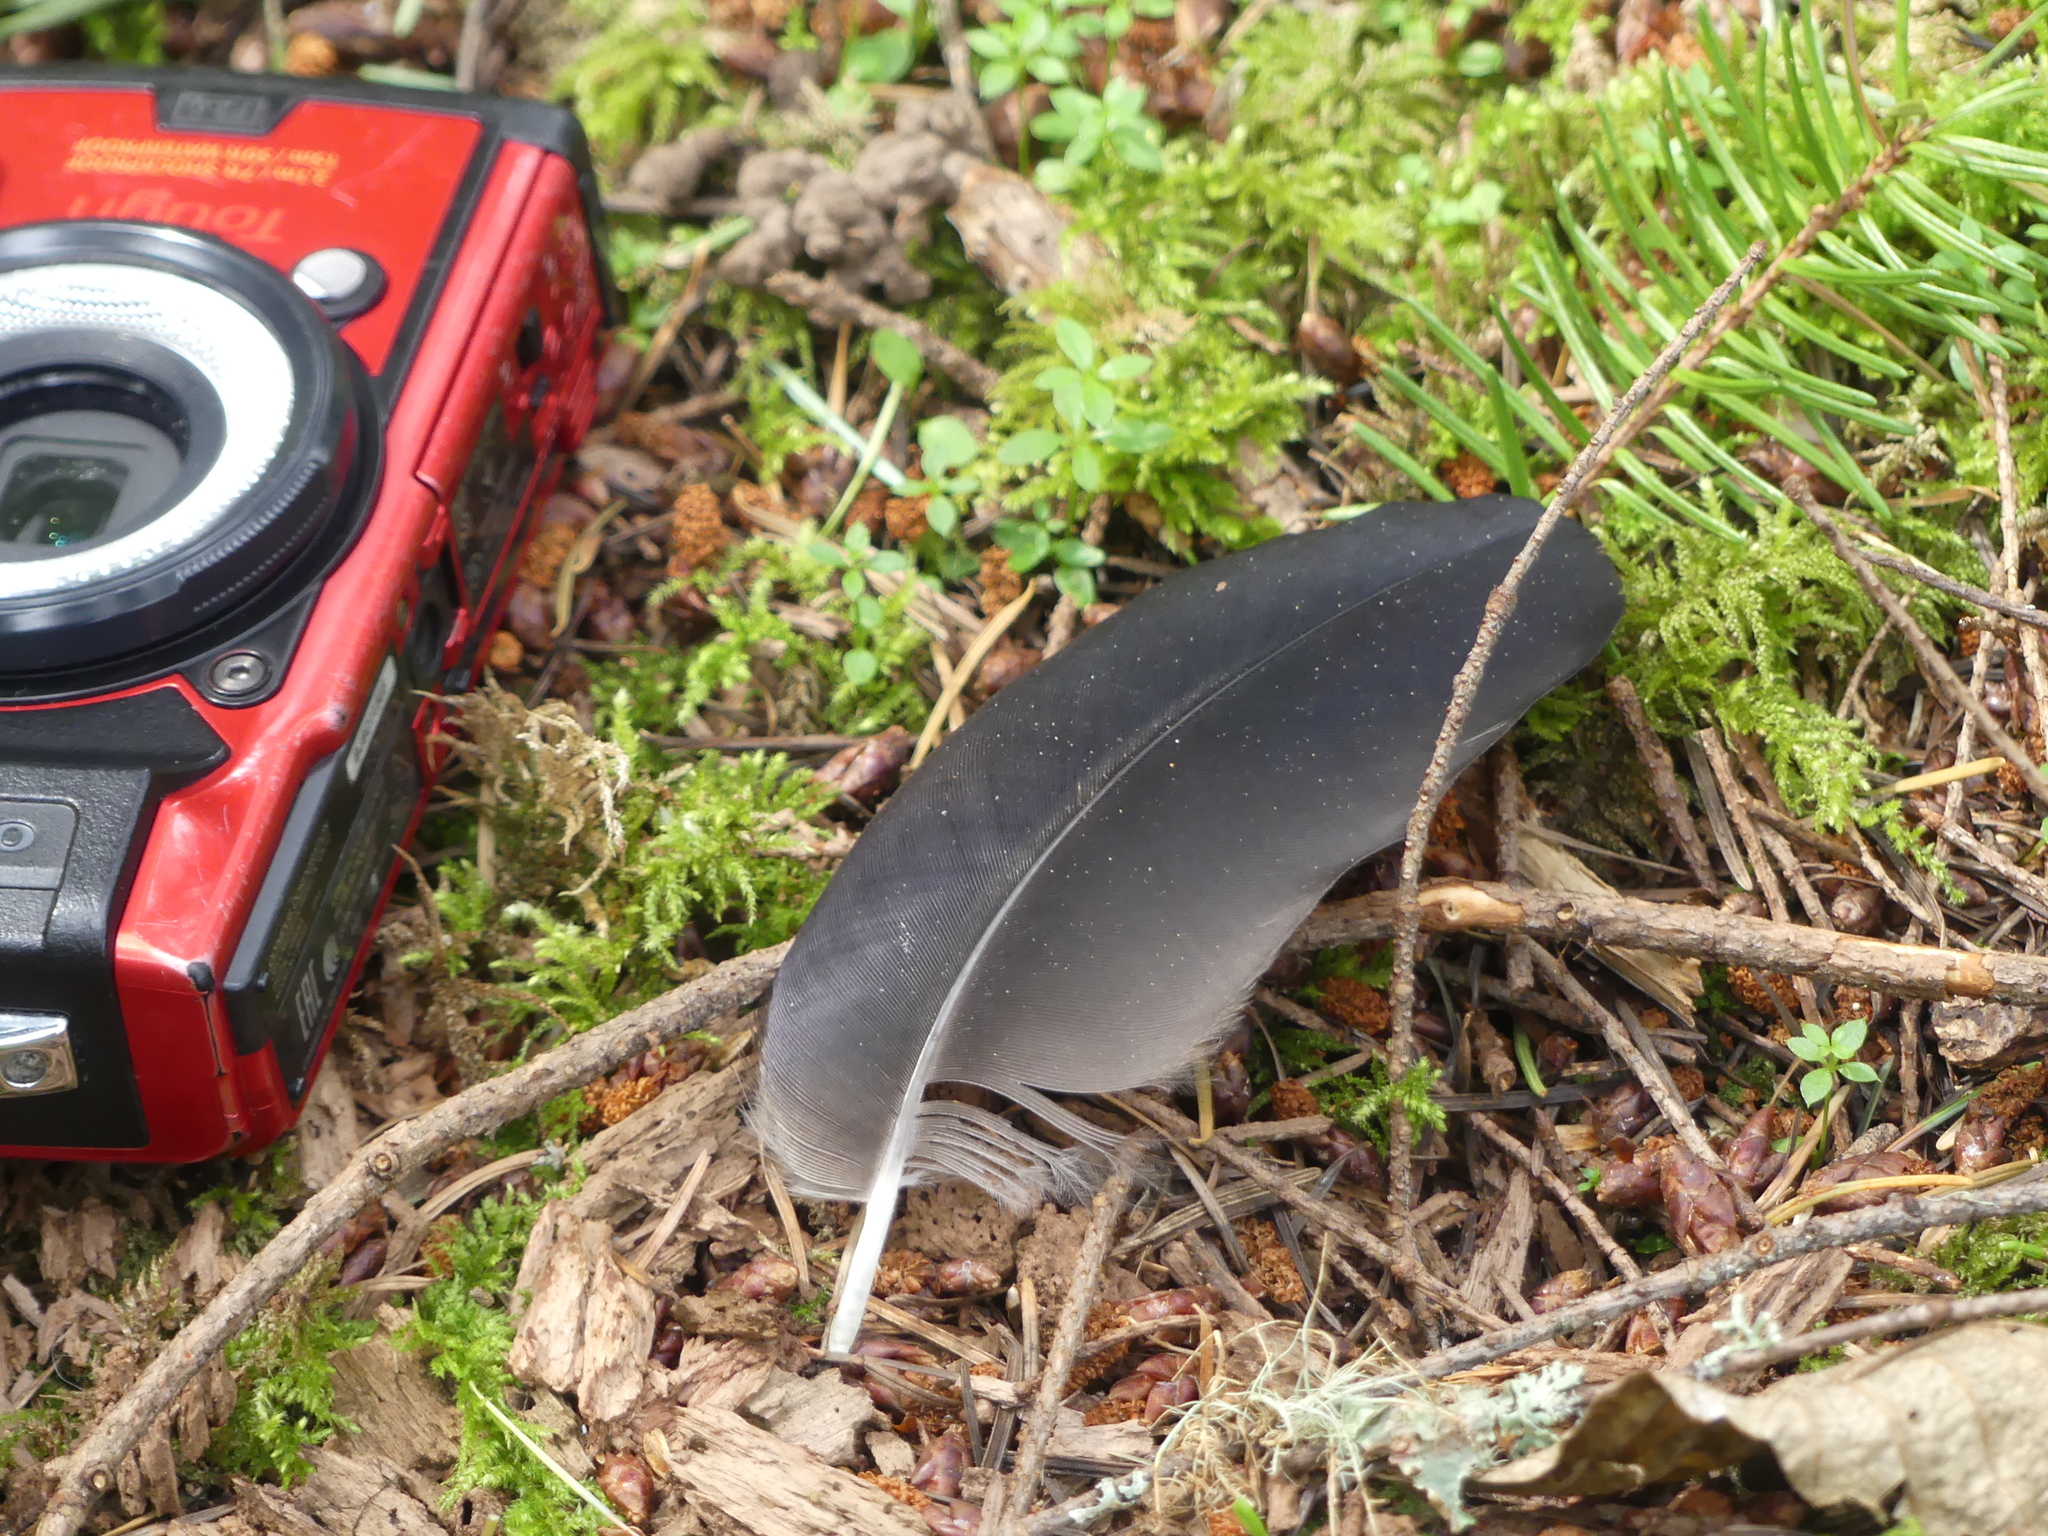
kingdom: Animalia
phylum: Chordata
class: Aves
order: Passeriformes
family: Corvidae
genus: Corvus
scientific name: Corvus corax
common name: Common raven
